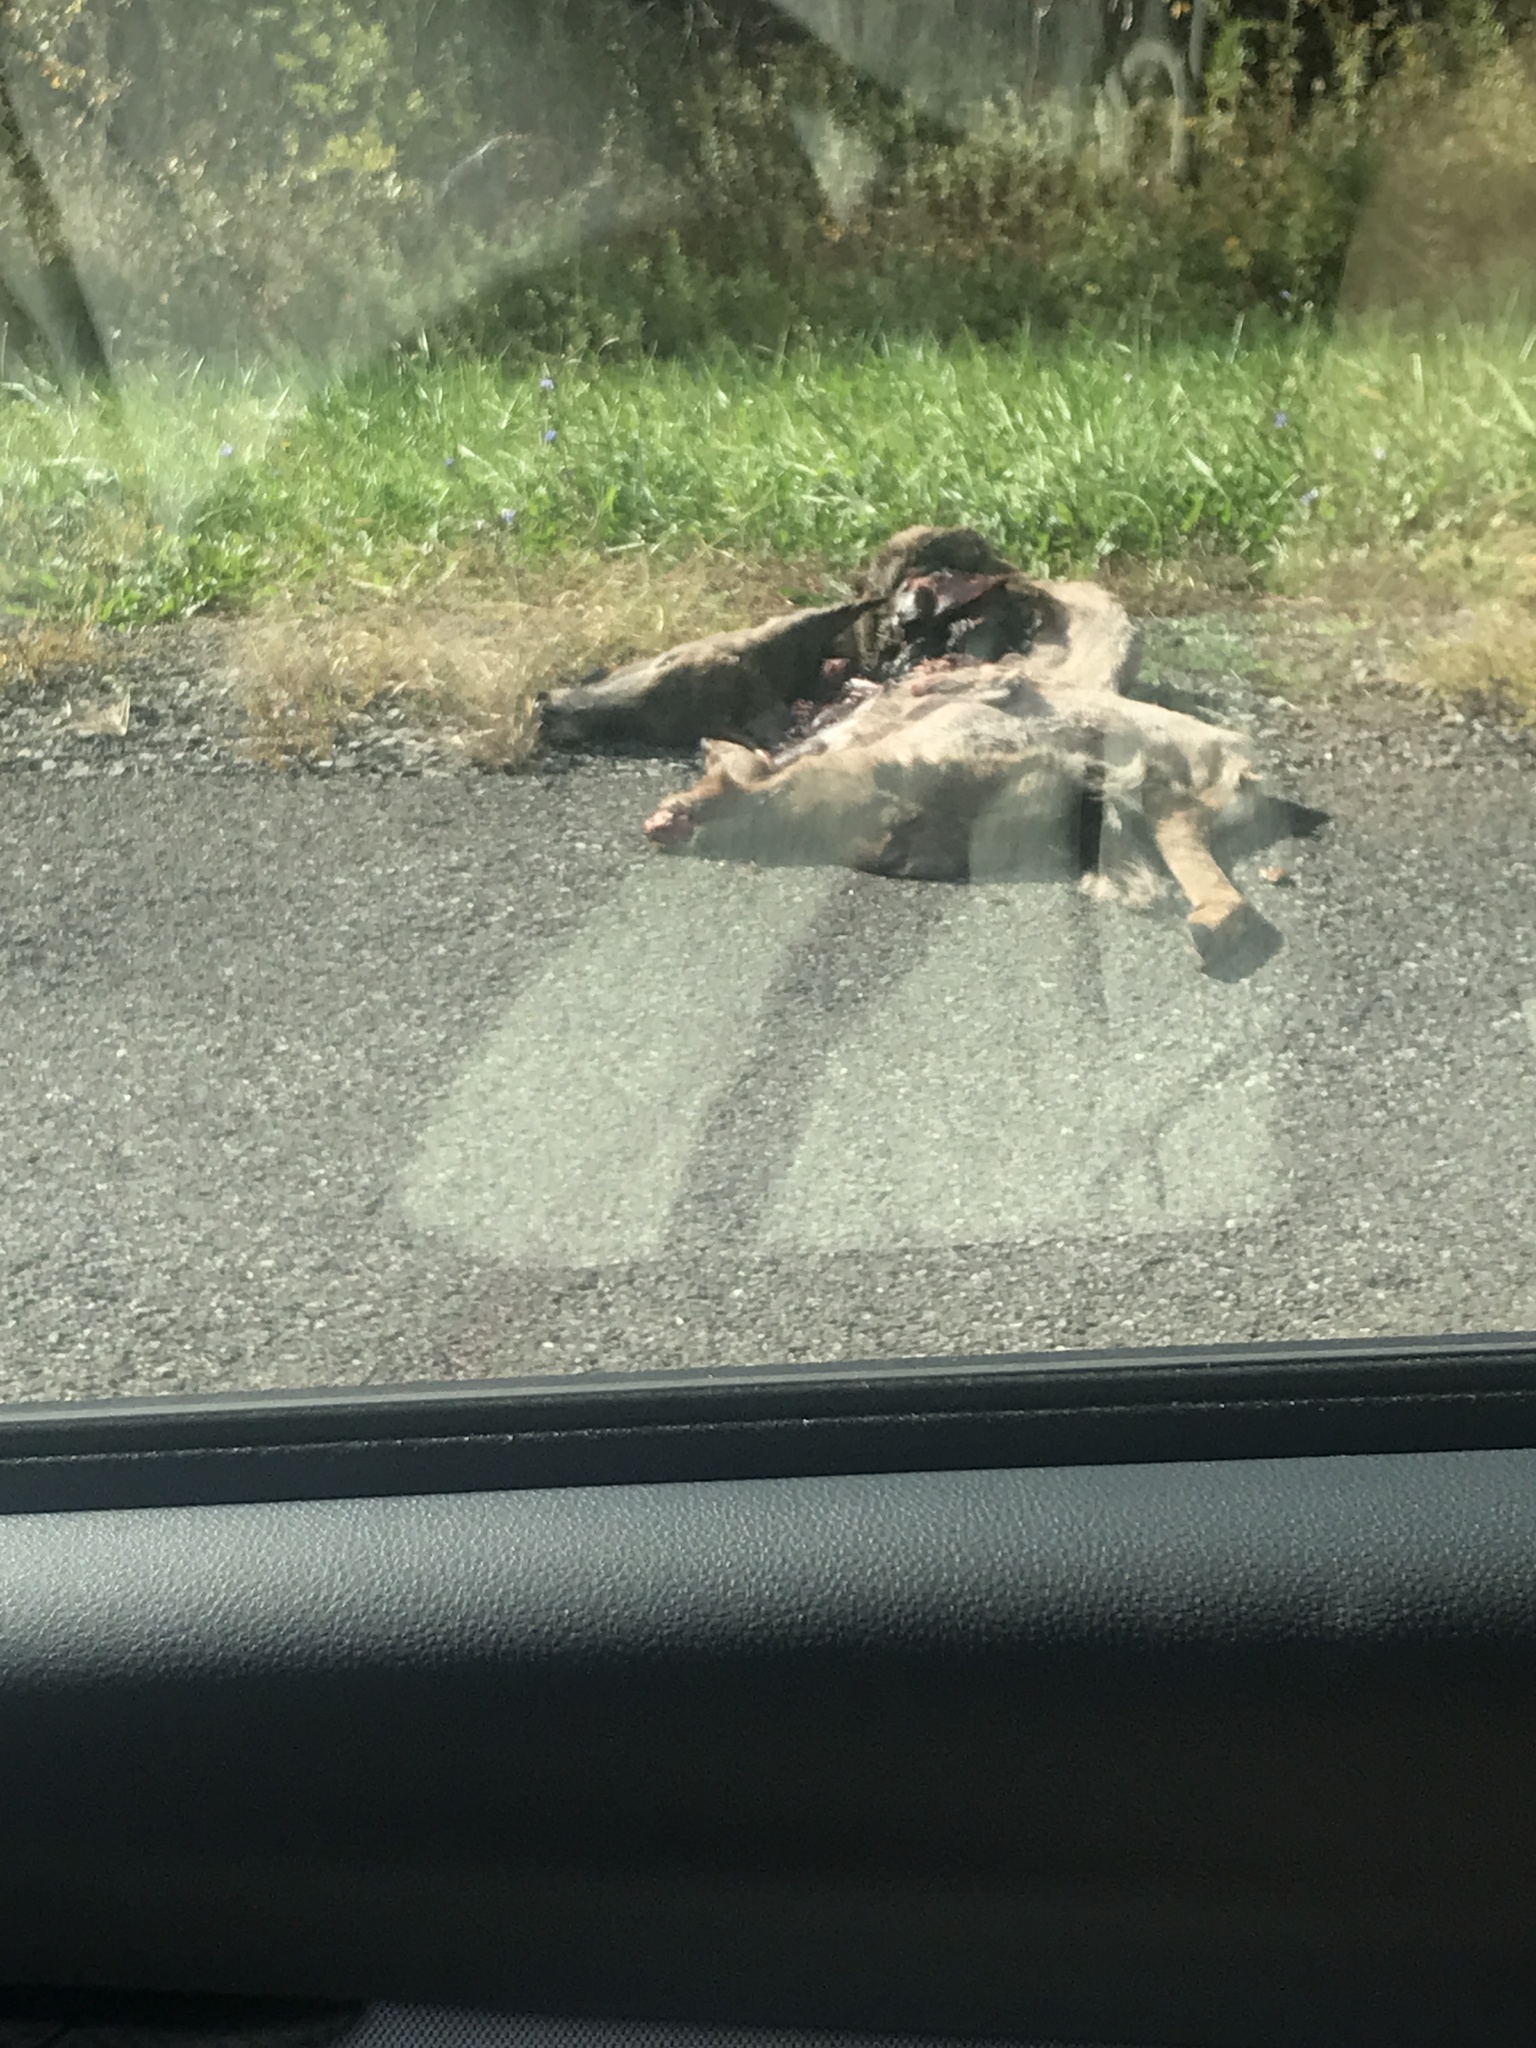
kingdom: Animalia
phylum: Chordata
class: Mammalia
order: Artiodactyla
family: Cervidae
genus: Odocoileus
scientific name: Odocoileus virginianus
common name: White-tailed deer
